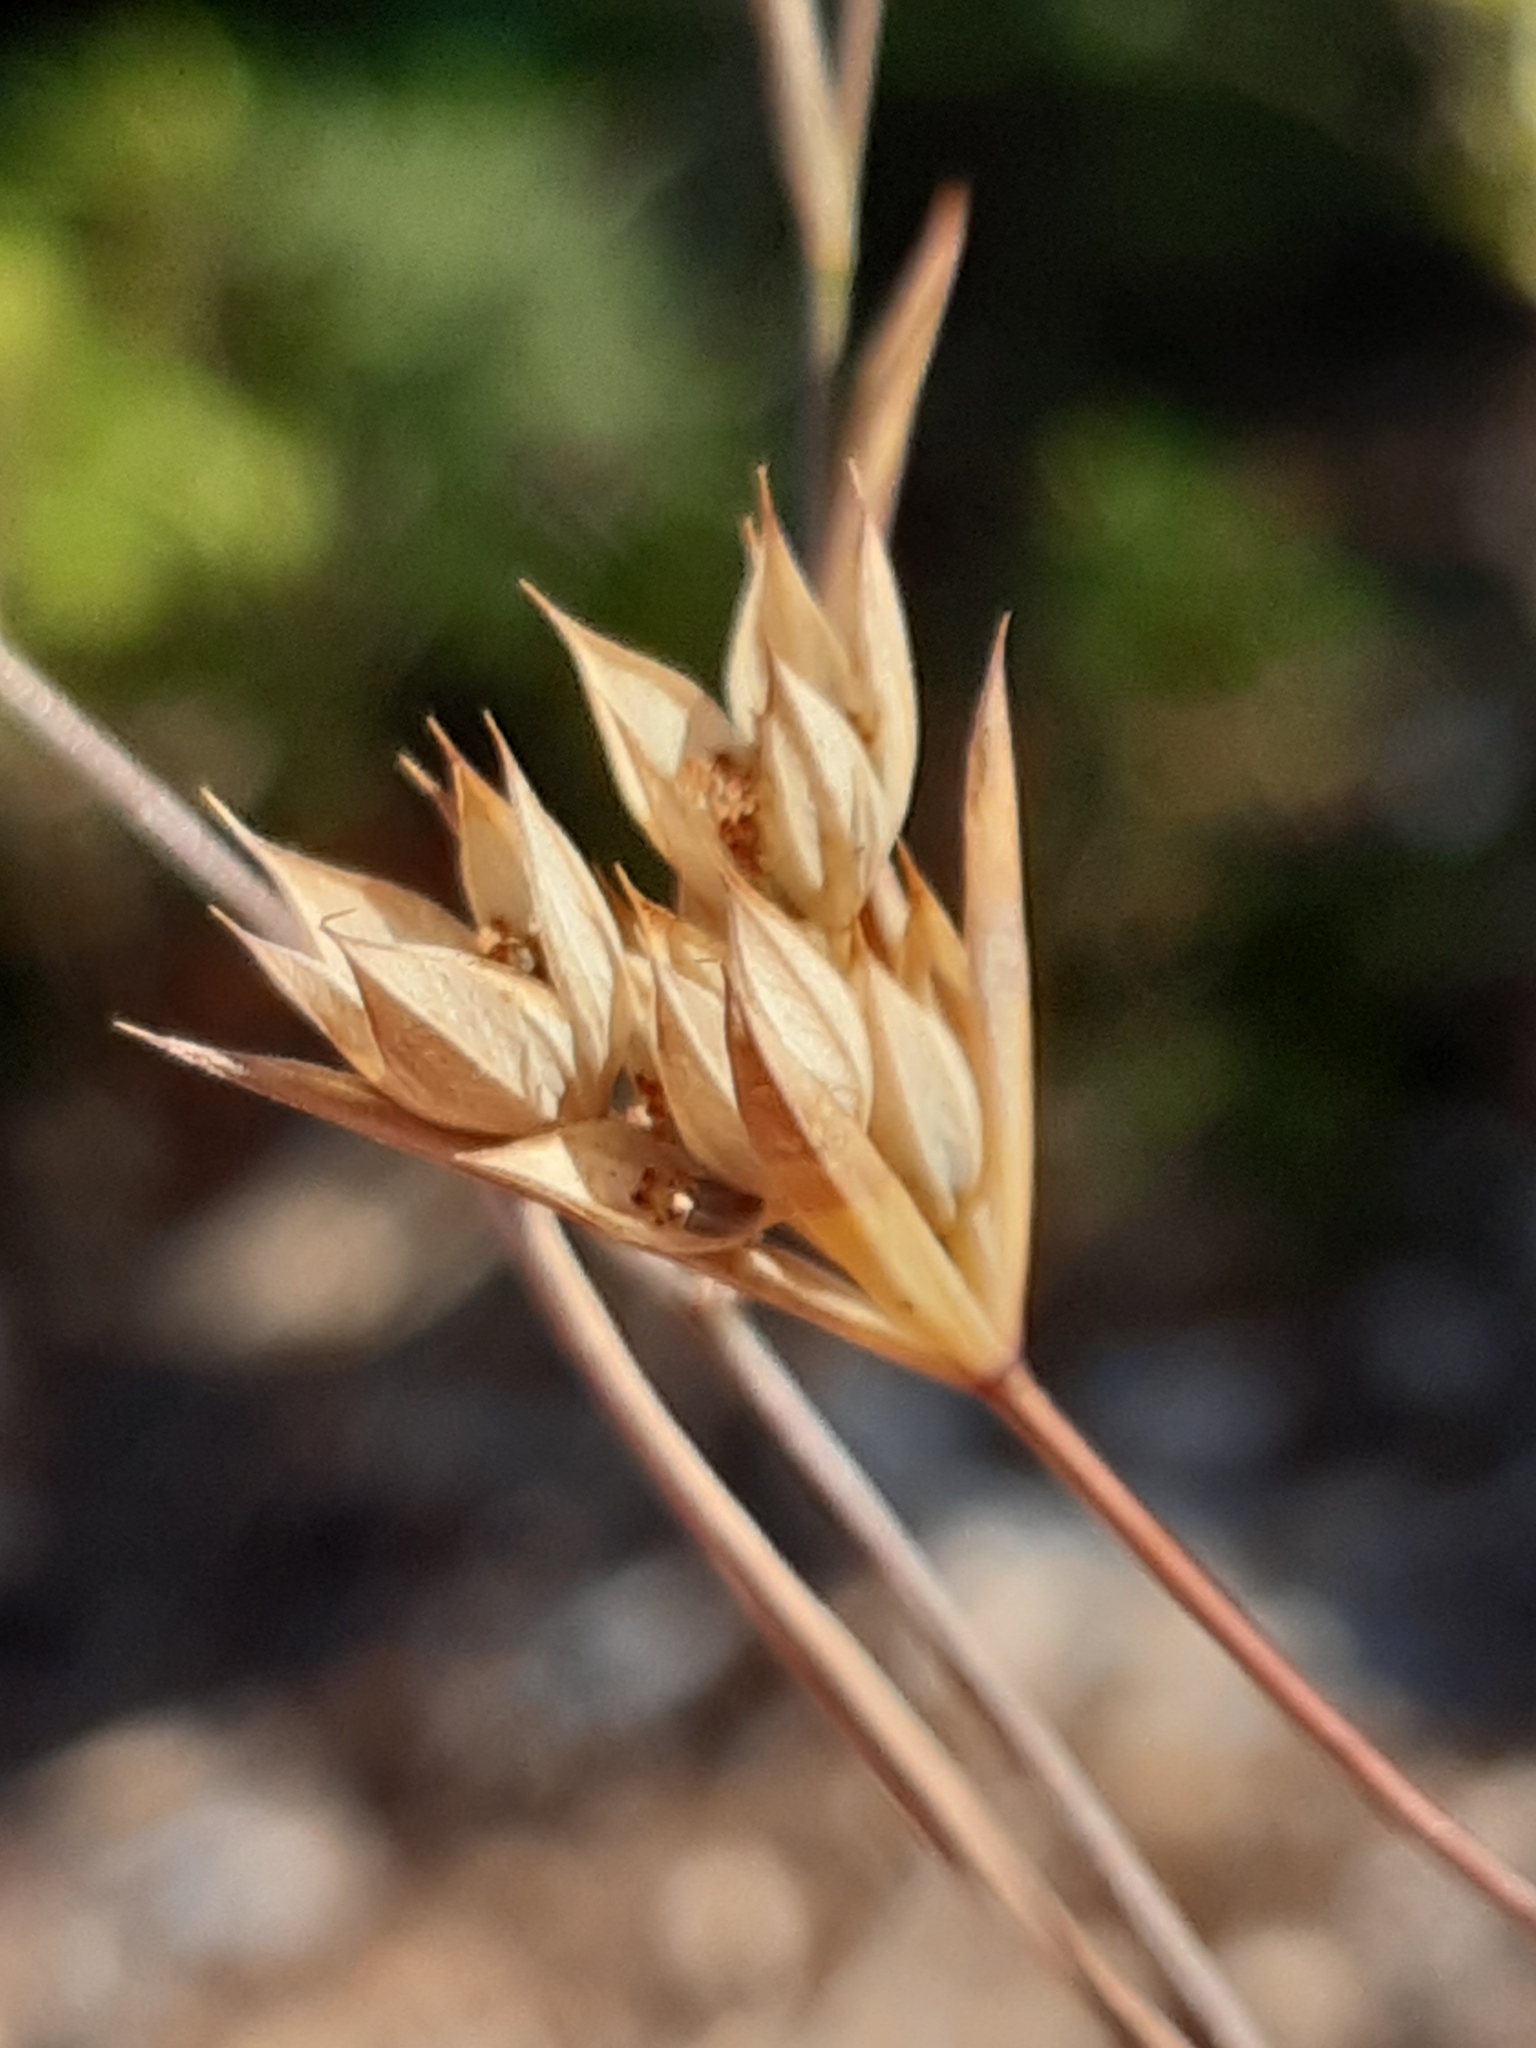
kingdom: Plantae
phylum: Tracheophyta
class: Magnoliopsida
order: Apiales
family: Apiaceae
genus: Bupleurum
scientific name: Bupleurum veronense
